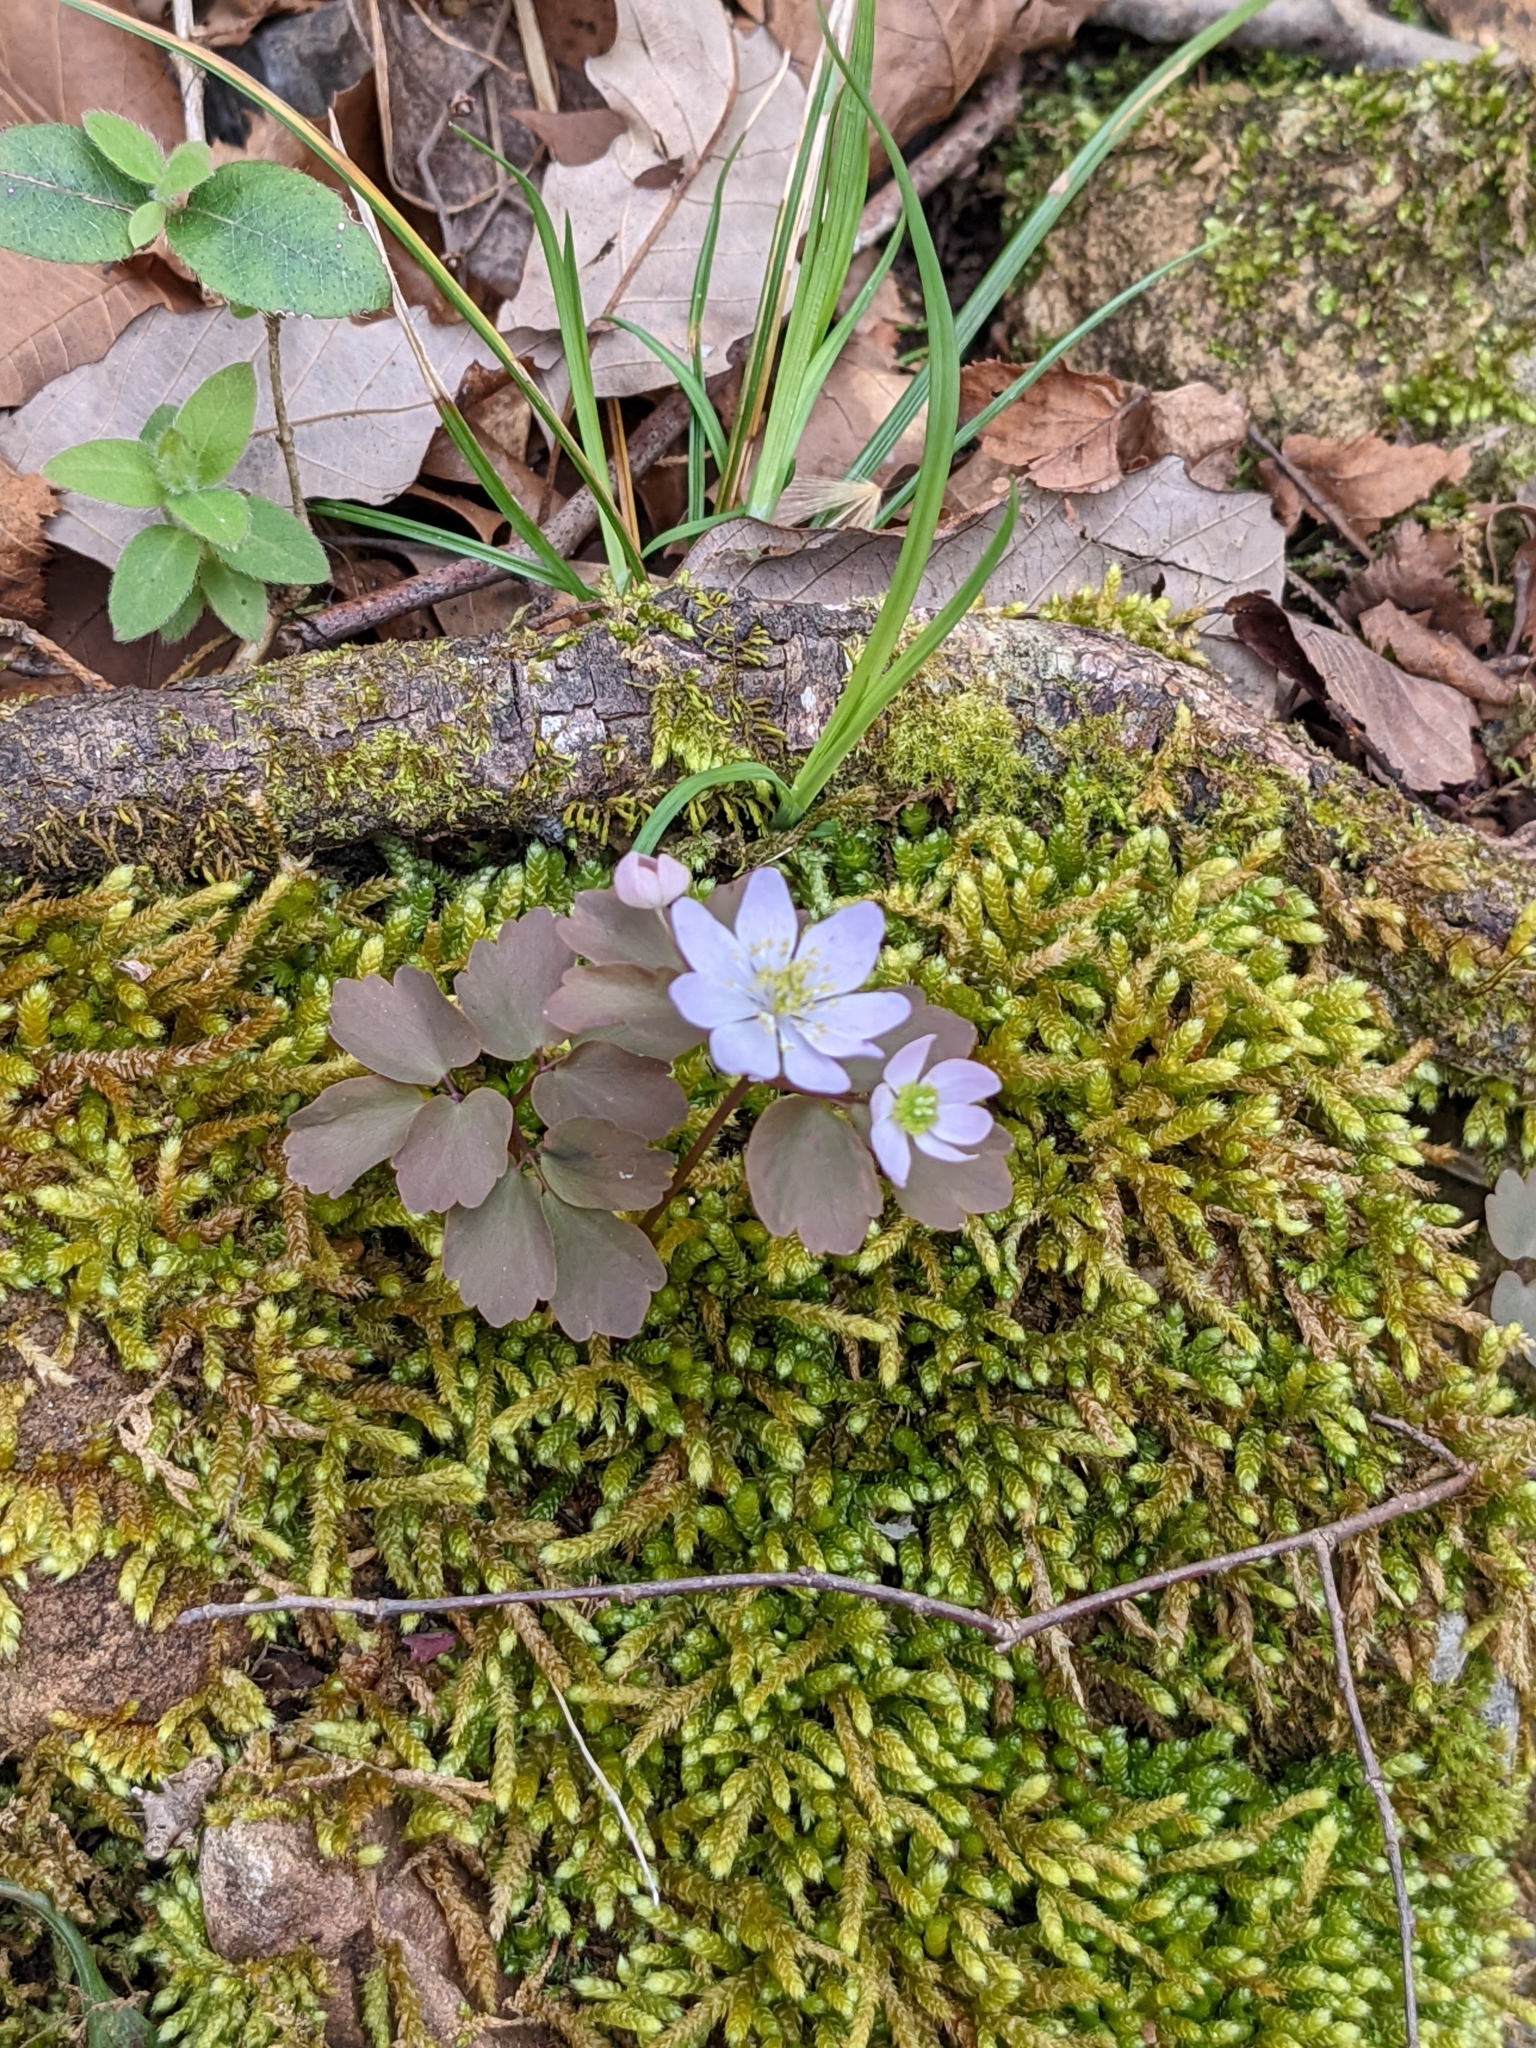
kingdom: Plantae
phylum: Tracheophyta
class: Magnoliopsida
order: Ranunculales
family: Ranunculaceae
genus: Thalictrum
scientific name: Thalictrum thalictroides
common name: Rue-anemone
